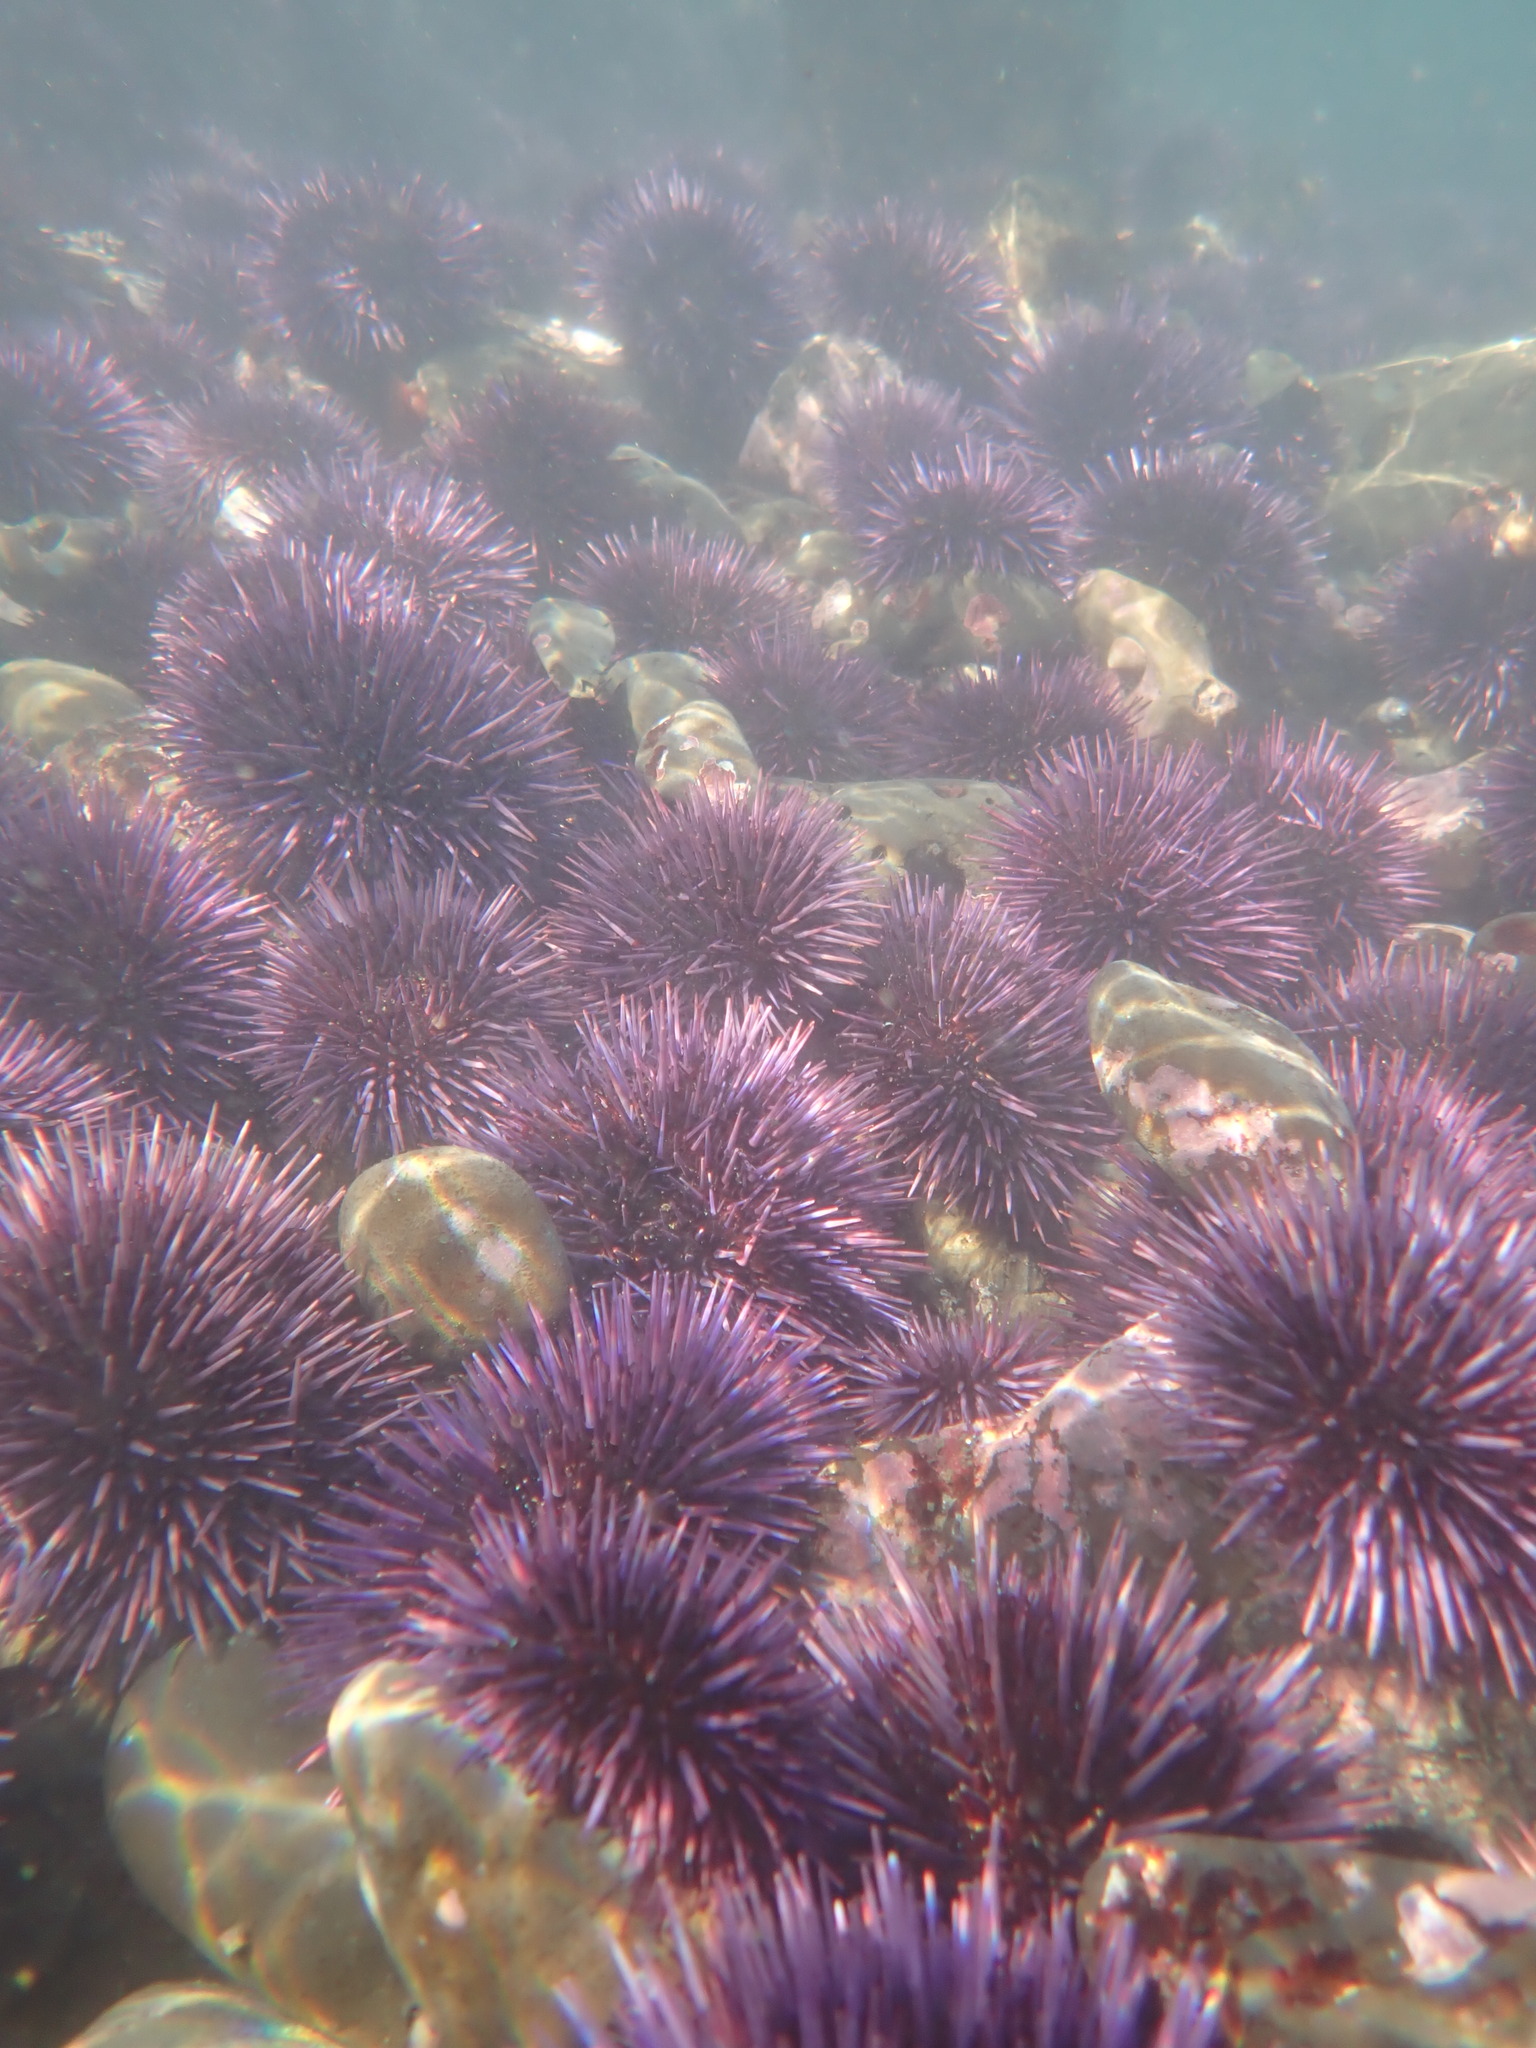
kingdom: Animalia
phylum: Echinodermata
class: Echinoidea
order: Camarodonta
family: Strongylocentrotidae
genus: Strongylocentrotus
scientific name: Strongylocentrotus purpuratus
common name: Purple sea urchin
